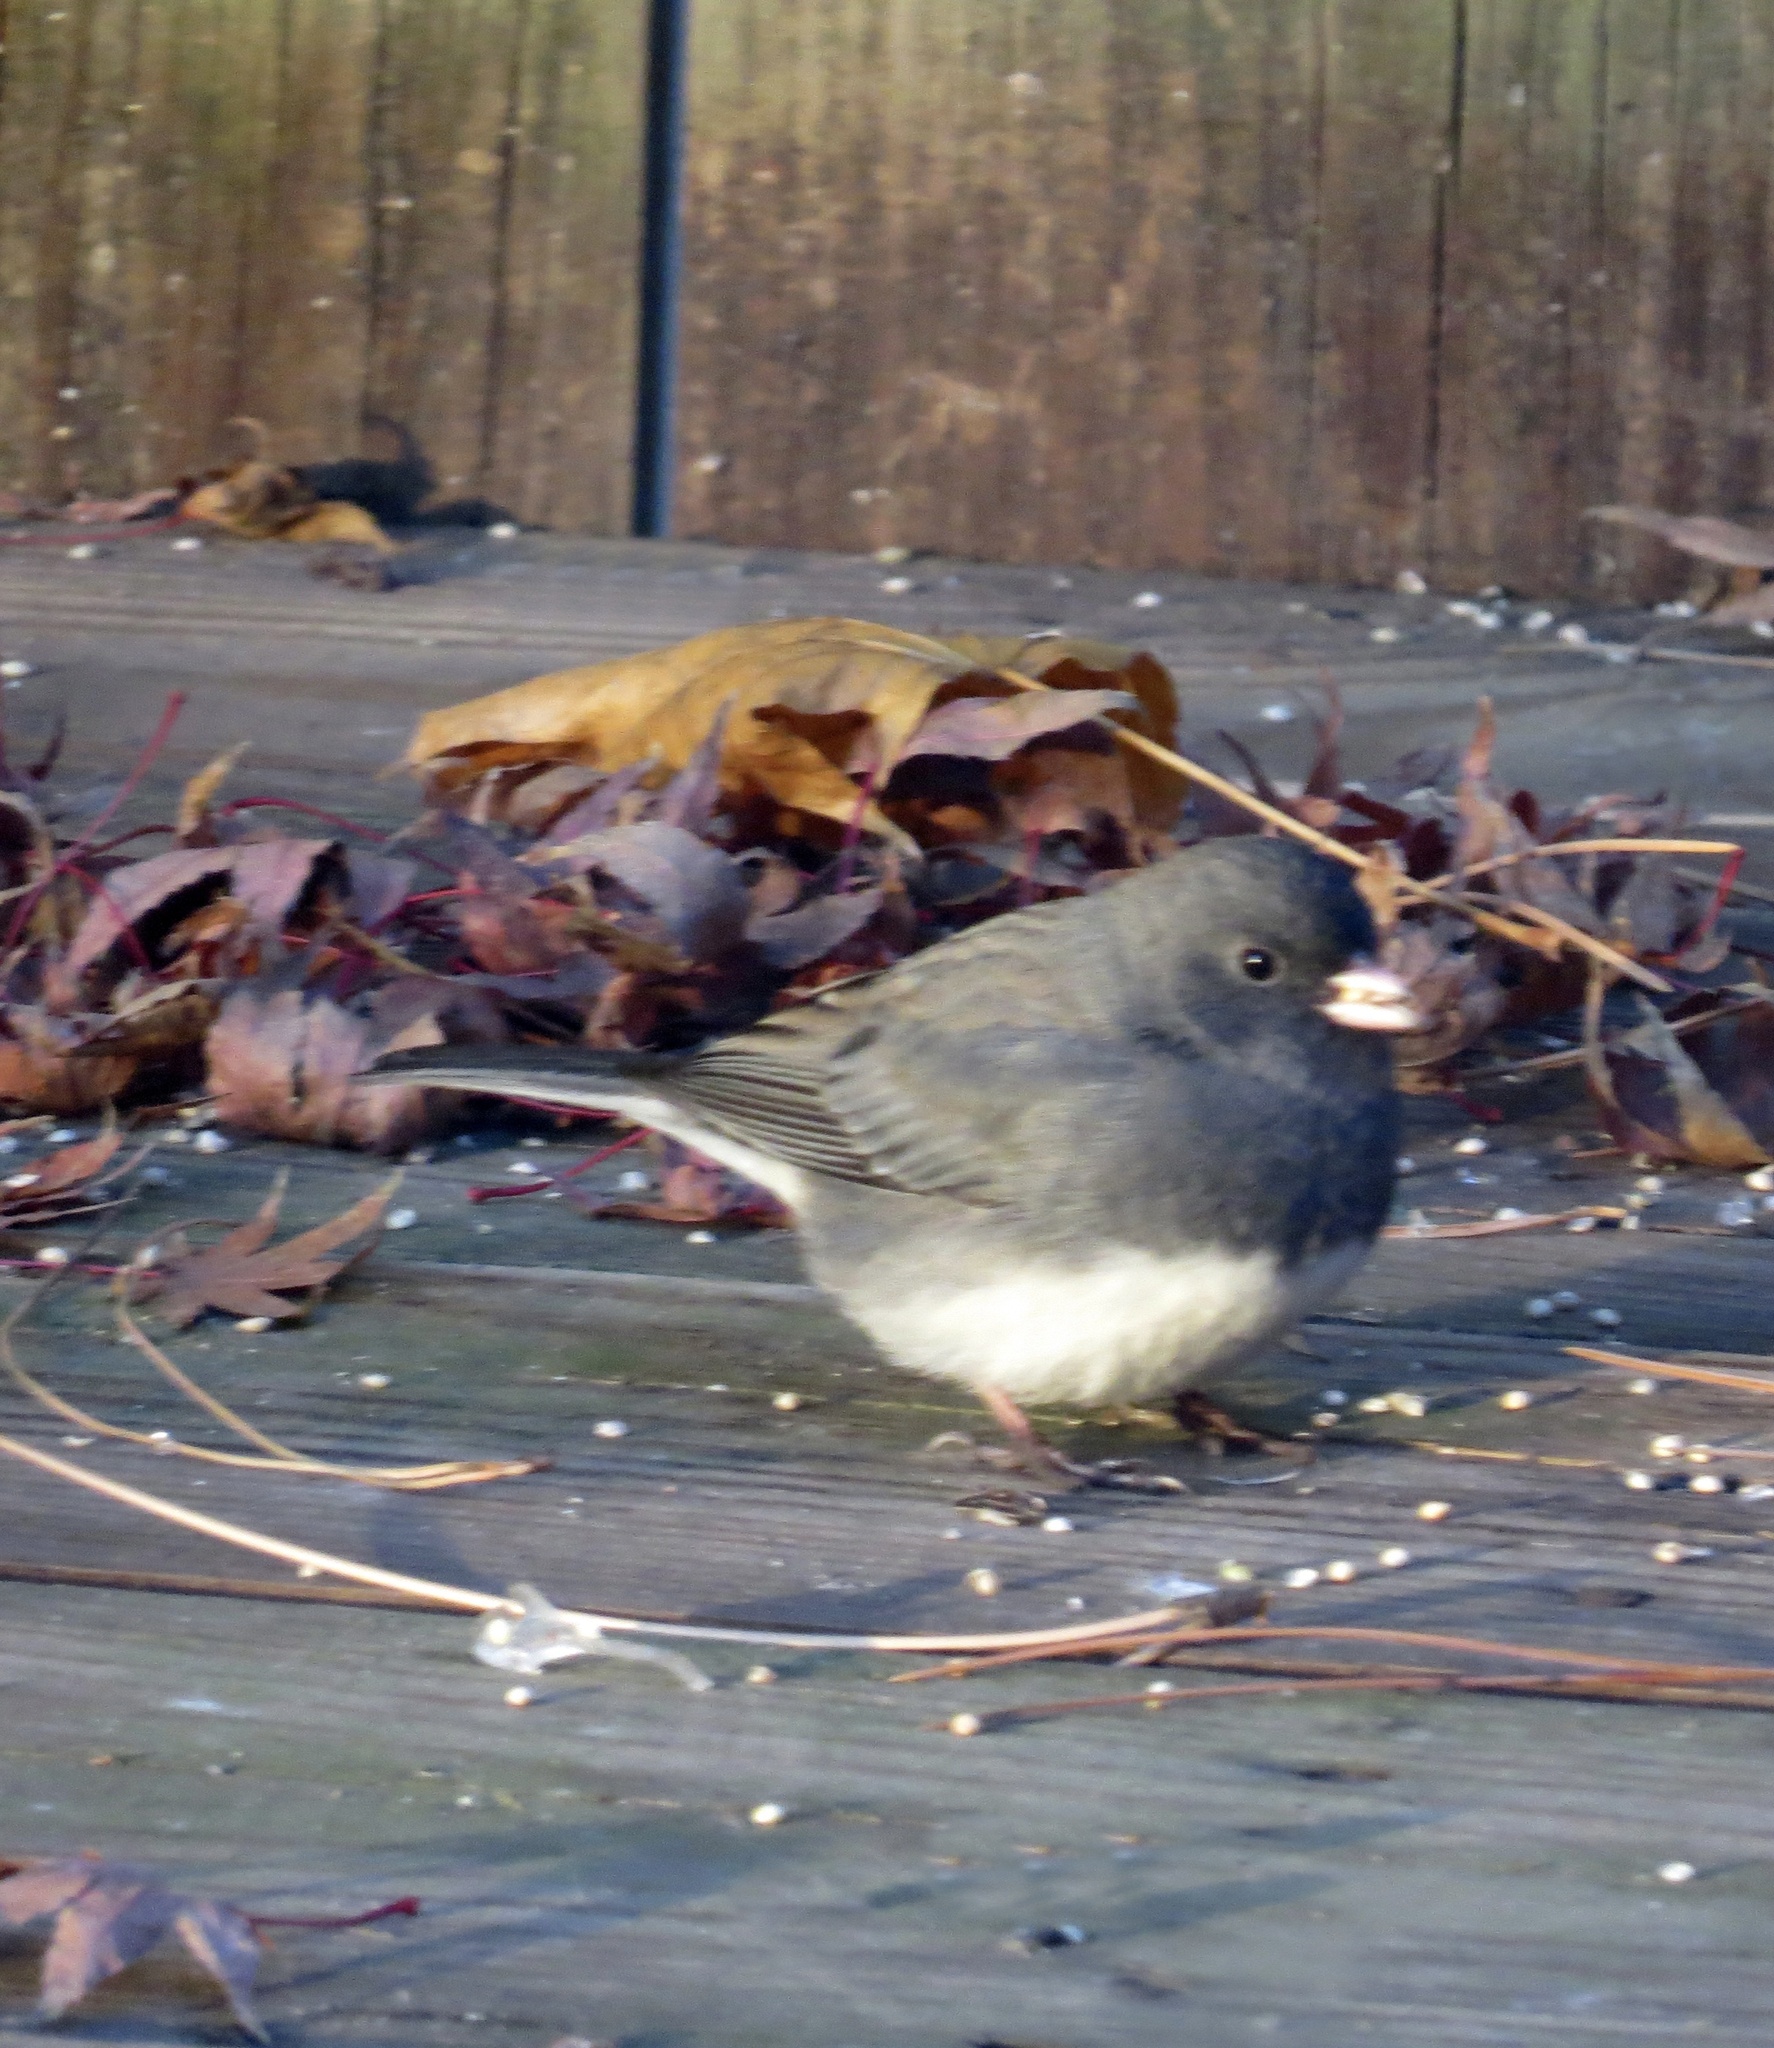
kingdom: Animalia
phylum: Chordata
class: Aves
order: Passeriformes
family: Passerellidae
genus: Junco
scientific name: Junco hyemalis
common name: Dark-eyed junco
